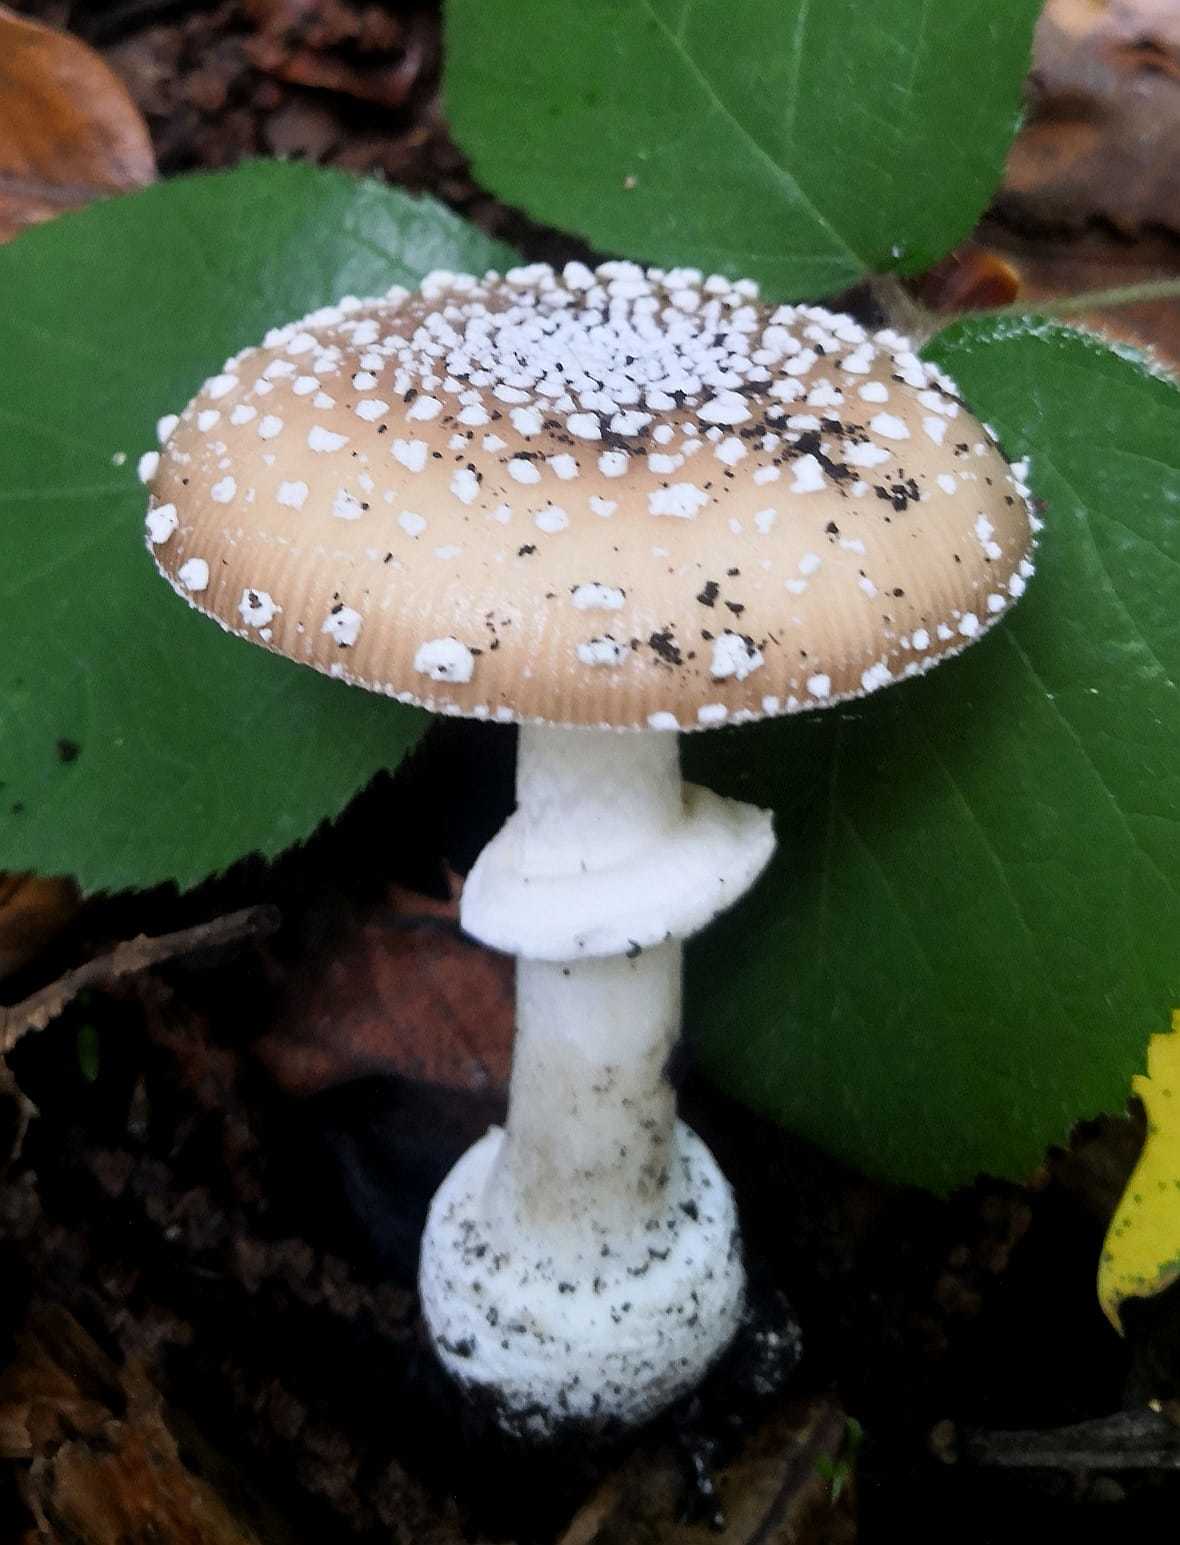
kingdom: Fungi
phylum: Basidiomycota
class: Agaricomycetes
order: Agaricales
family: Amanitaceae
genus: Amanita
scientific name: Amanita pantherina
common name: Panthercap
